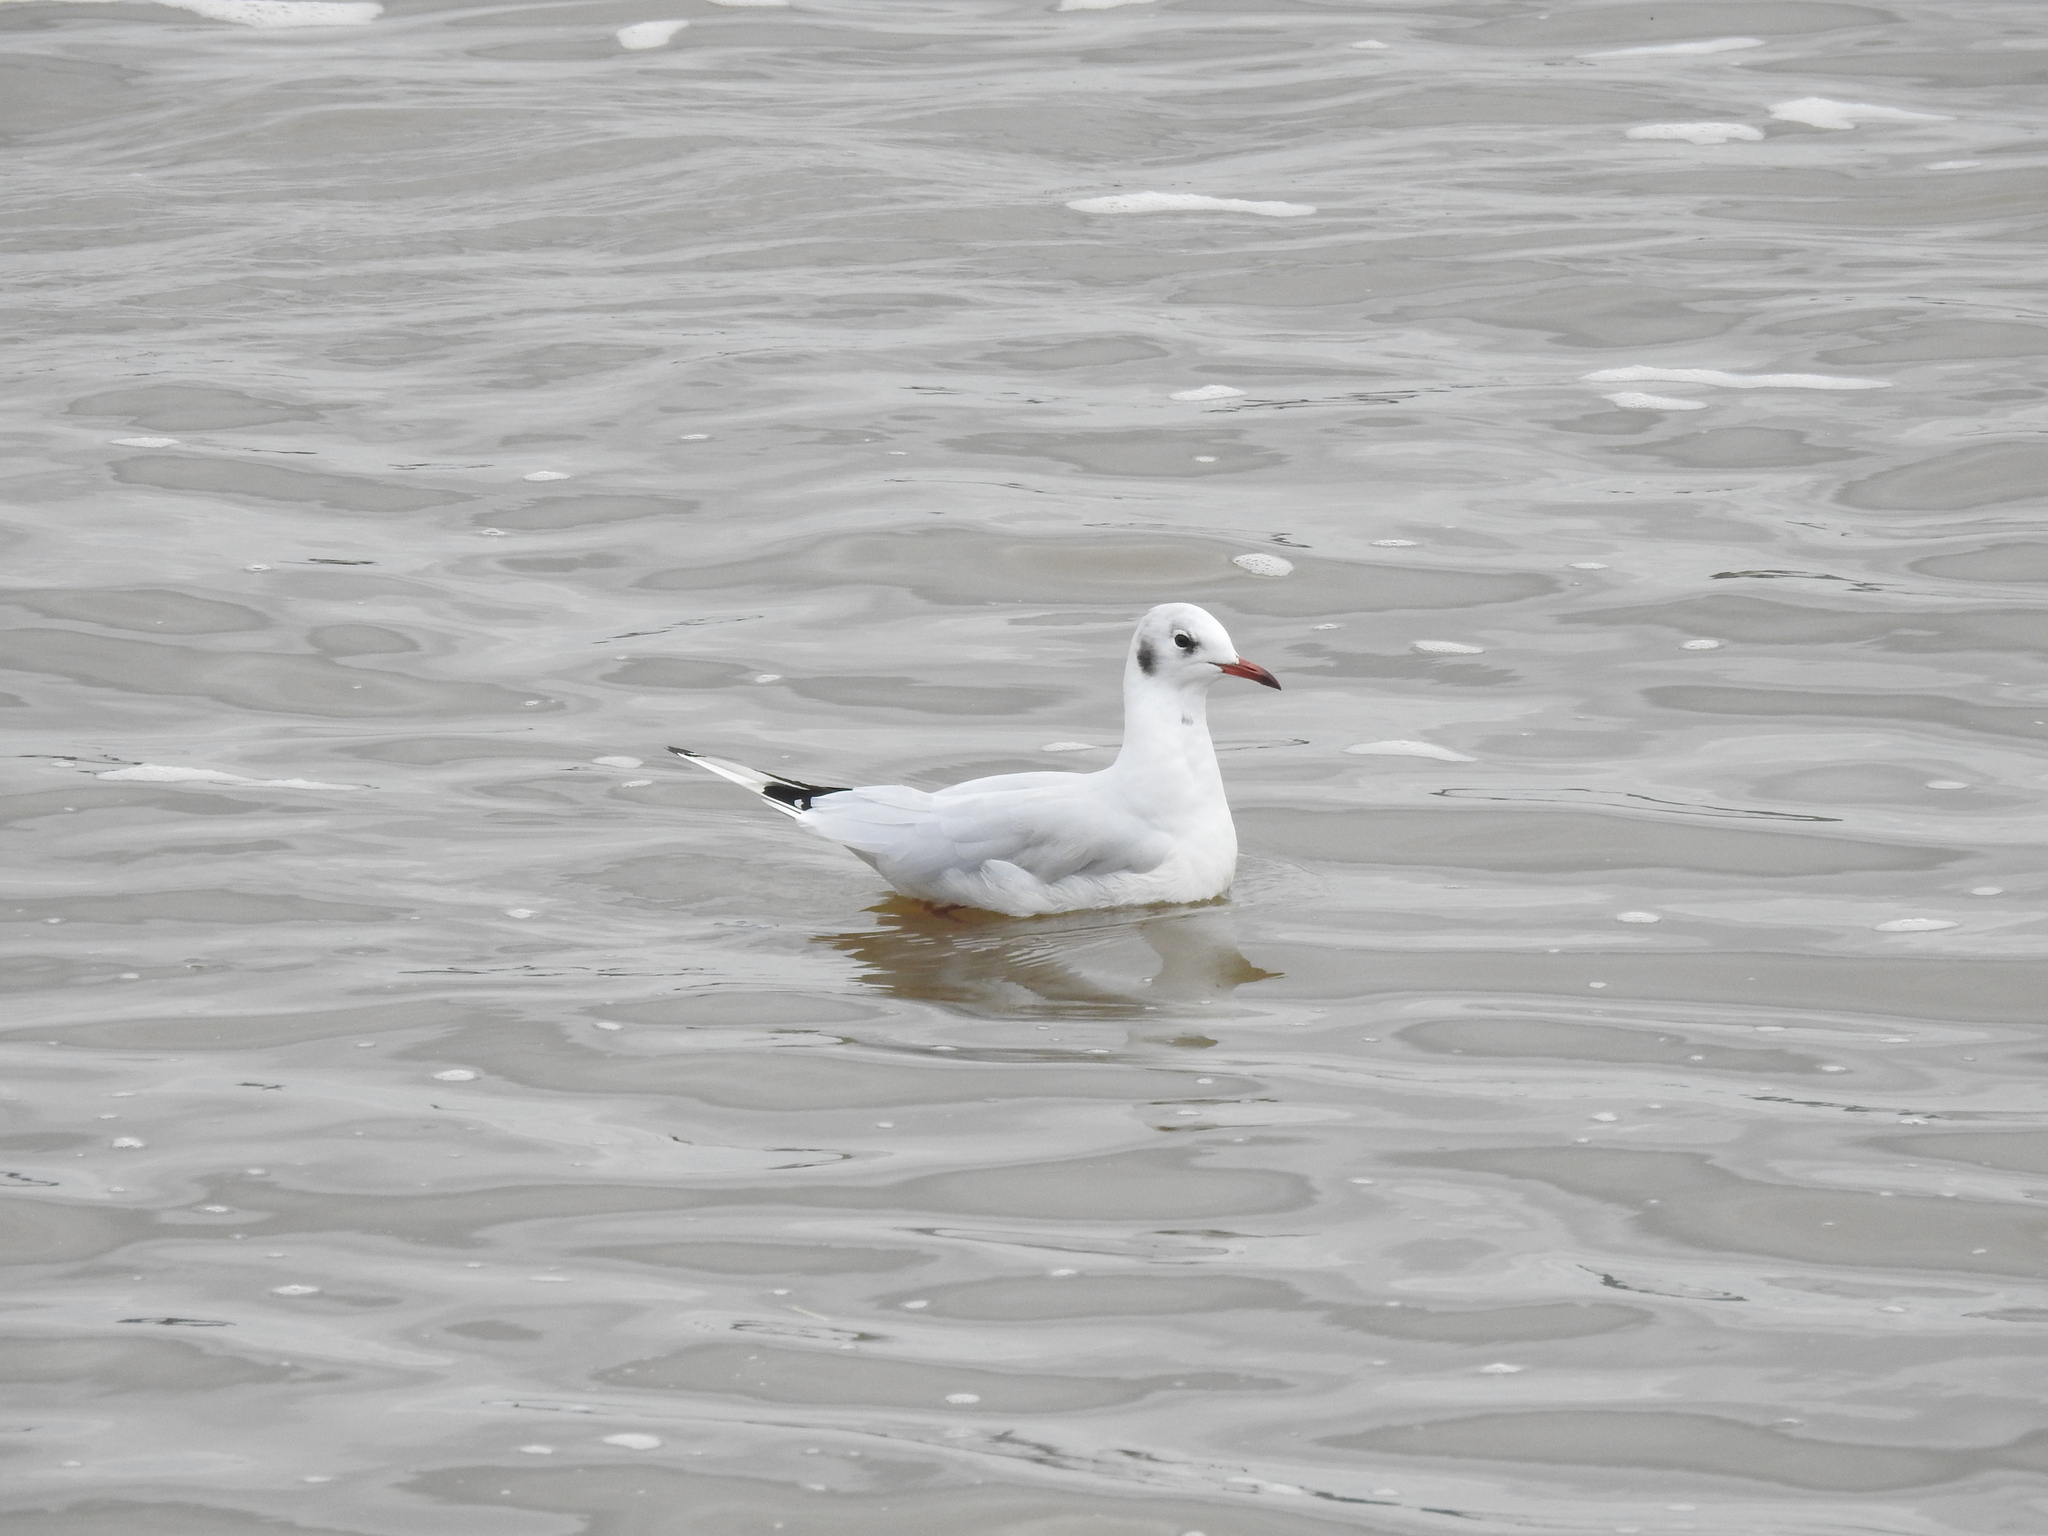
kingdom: Animalia
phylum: Chordata
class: Aves
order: Charadriiformes
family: Laridae
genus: Chroicocephalus
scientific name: Chroicocephalus ridibundus
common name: Black-headed gull
